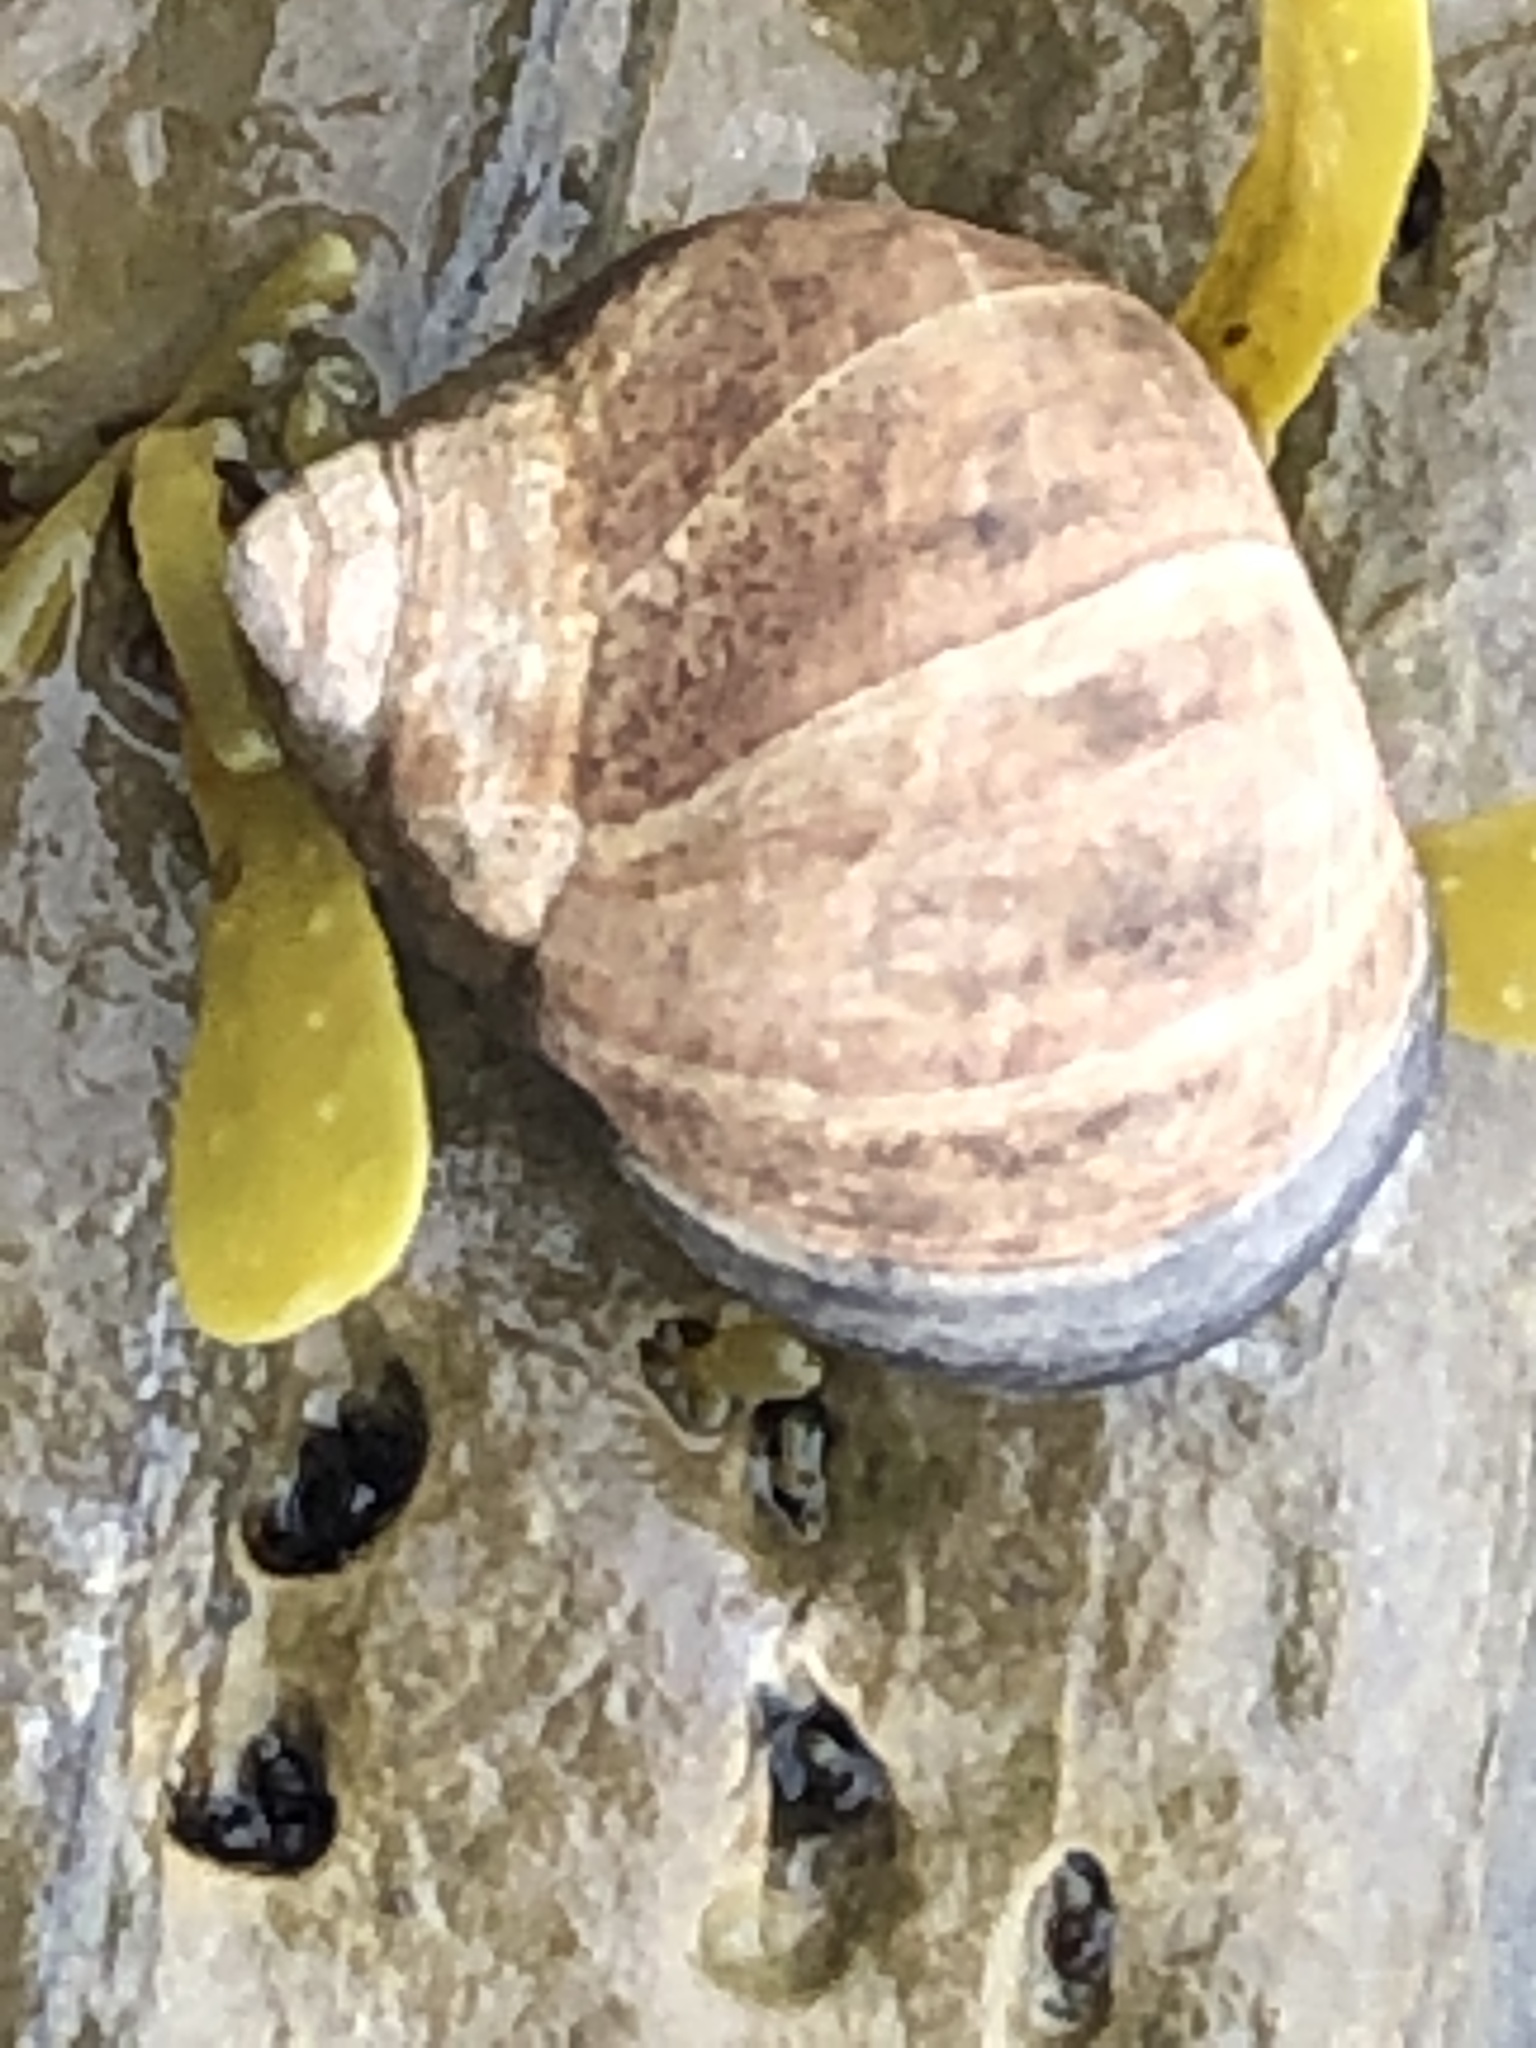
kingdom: Animalia
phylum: Mollusca
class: Gastropoda
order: Littorinimorpha
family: Littorinidae
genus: Littorina
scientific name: Littorina littorea
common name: Common periwinkle
